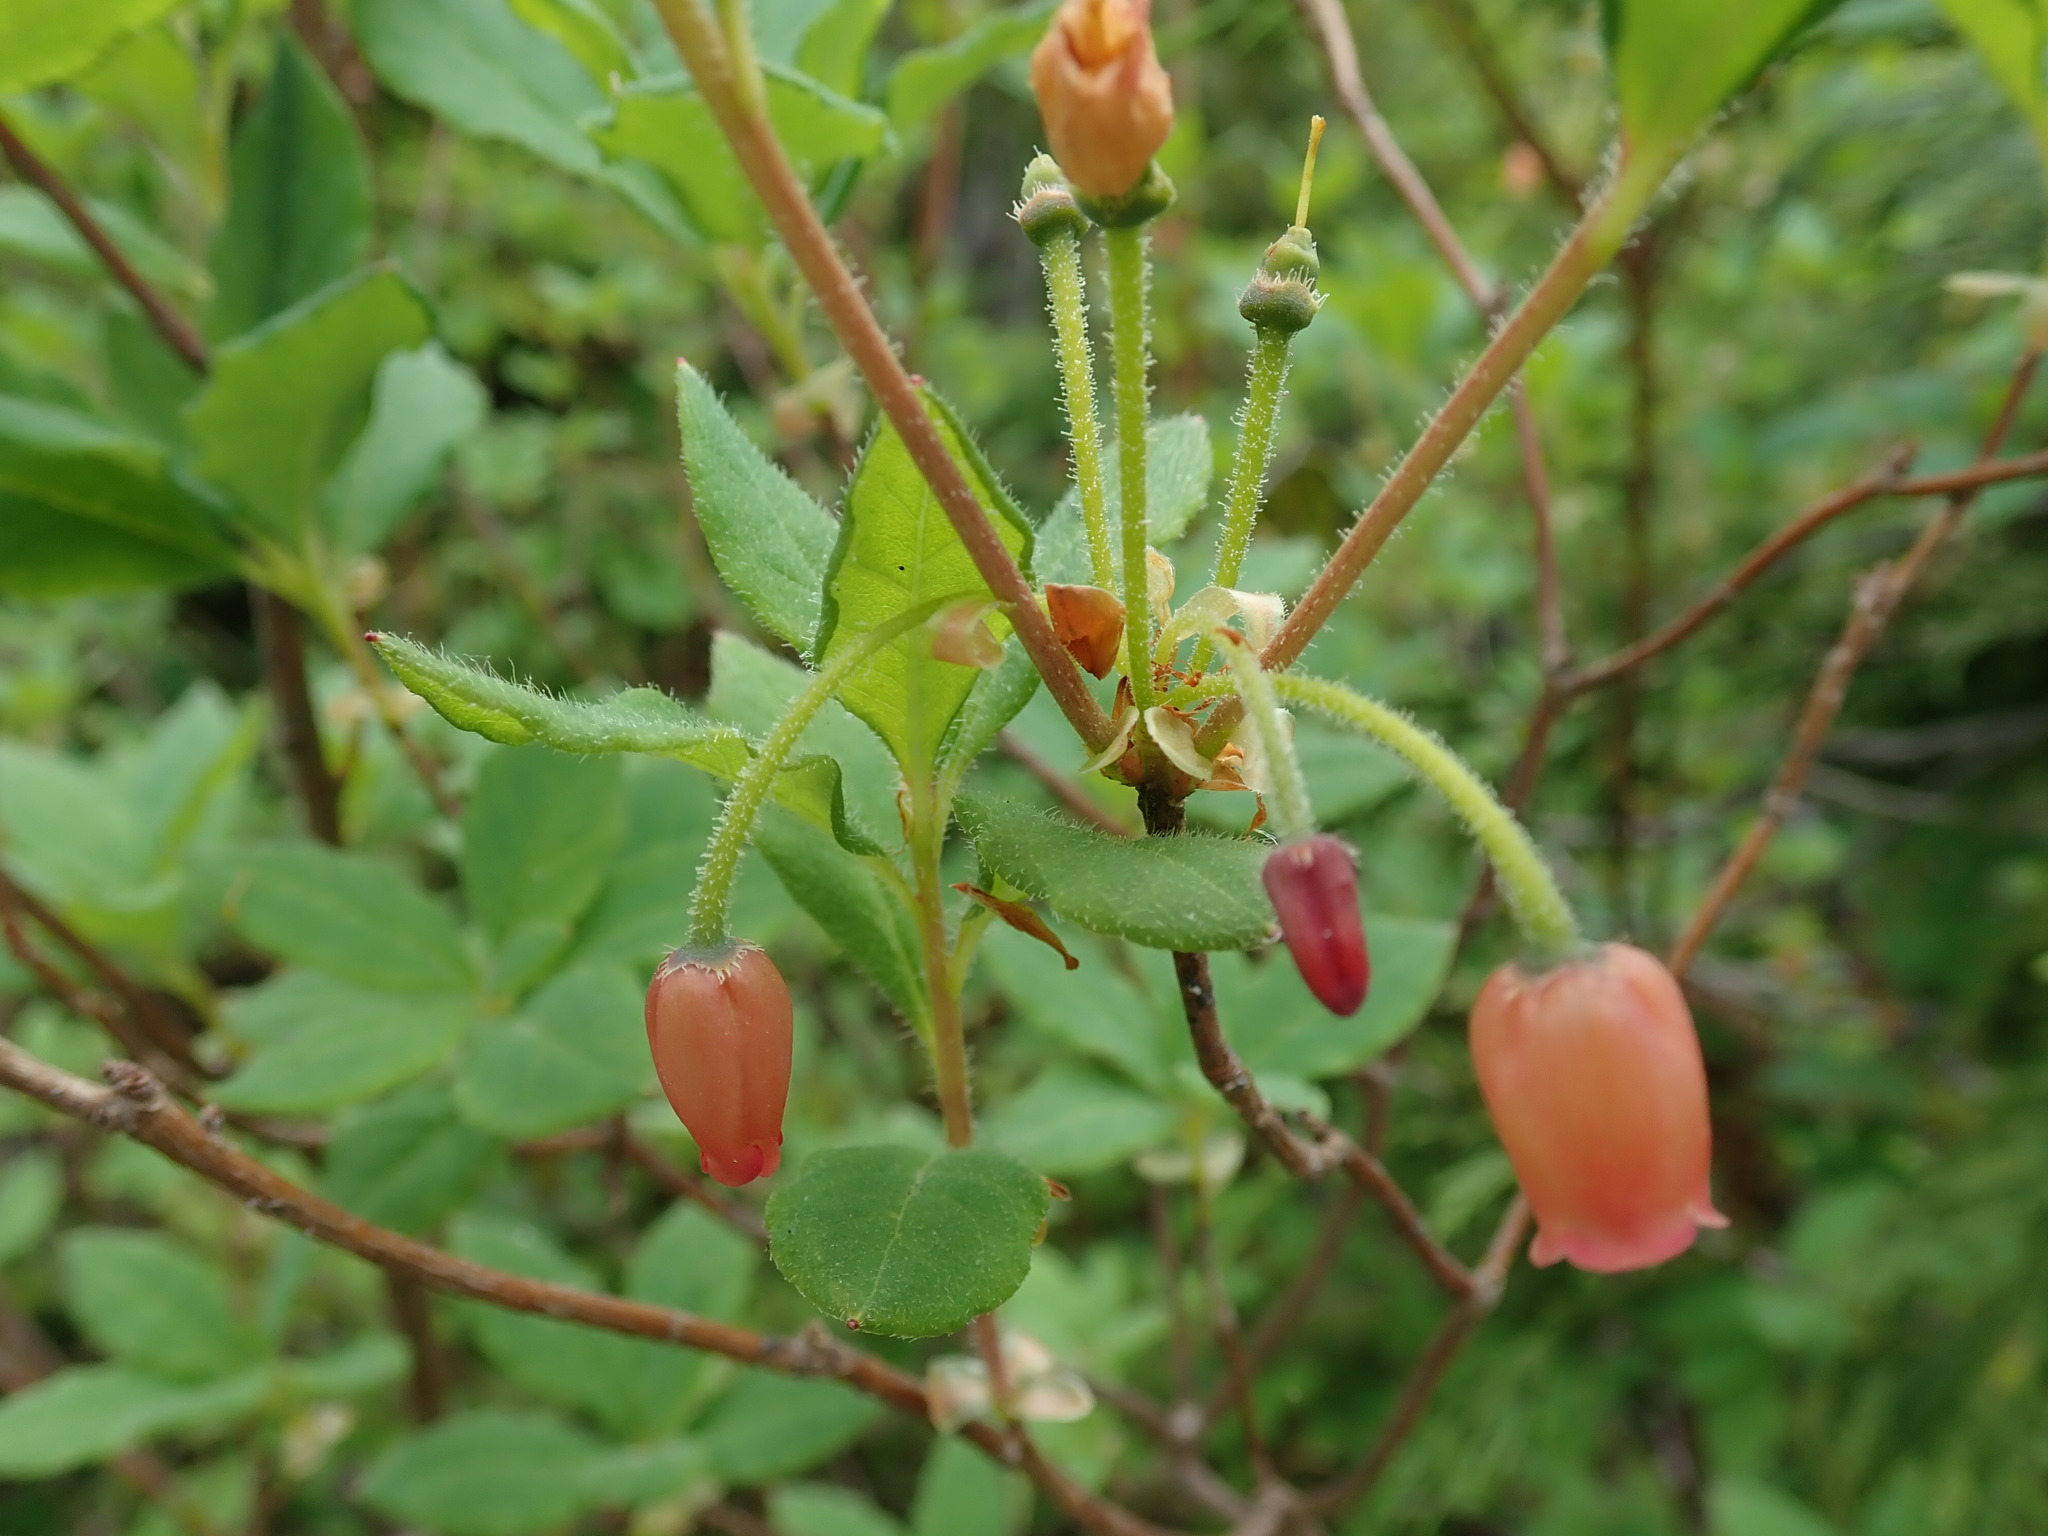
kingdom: Plantae
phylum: Tracheophyta
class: Magnoliopsida
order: Ericales
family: Ericaceae
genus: Rhododendron
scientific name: Rhododendron menziesii
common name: Pacific menziesia
